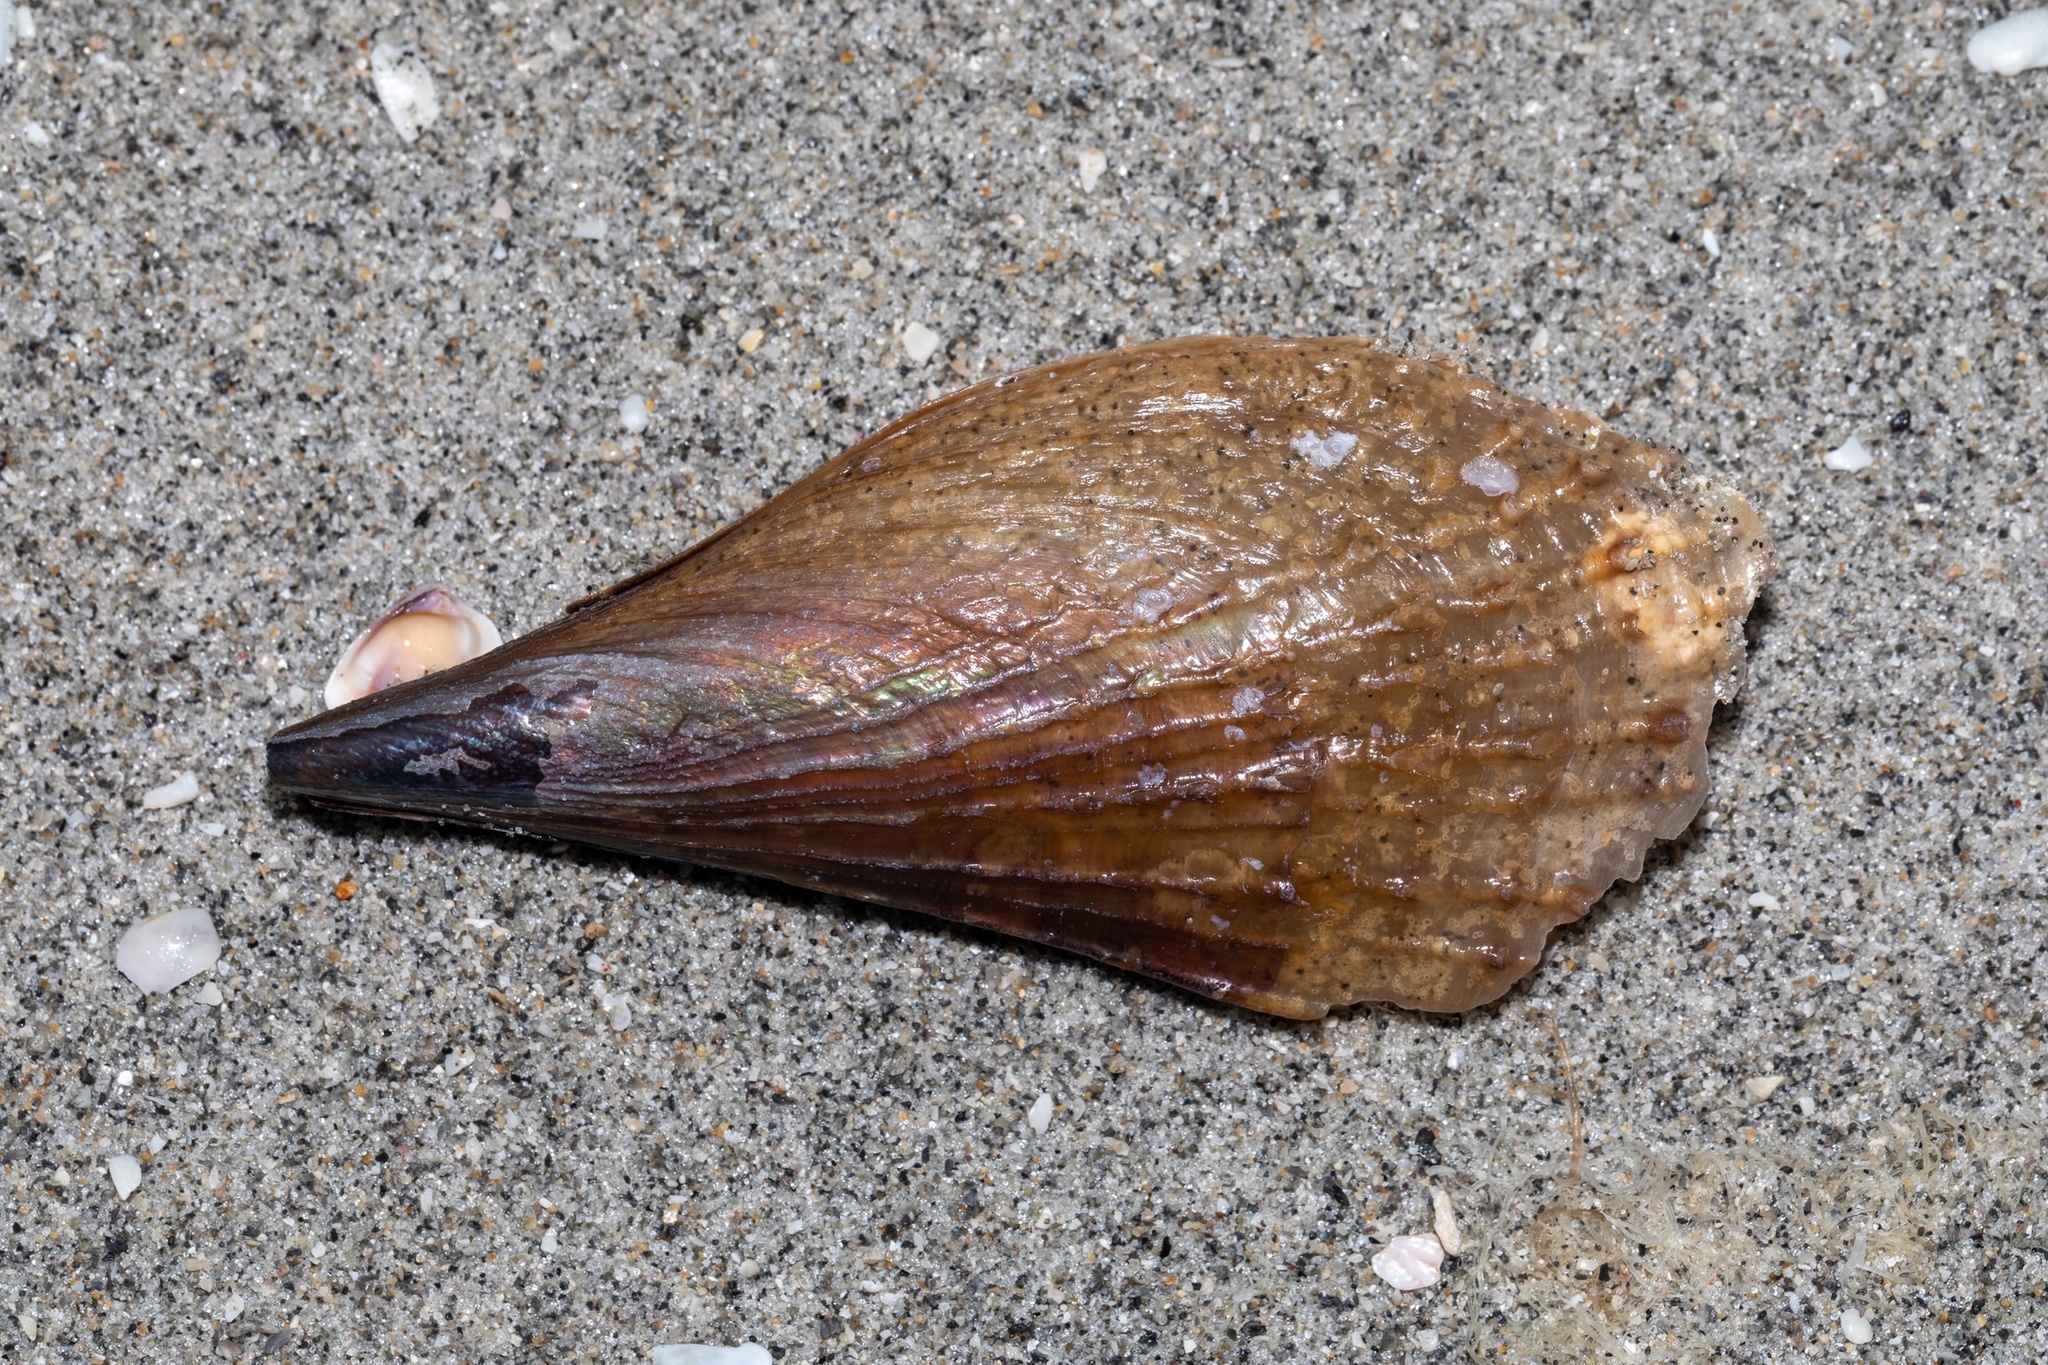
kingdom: Animalia
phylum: Mollusca
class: Bivalvia
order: Ostreida
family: Pinnidae
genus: Atrina
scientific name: Atrina rigida
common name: Stiff penshell
